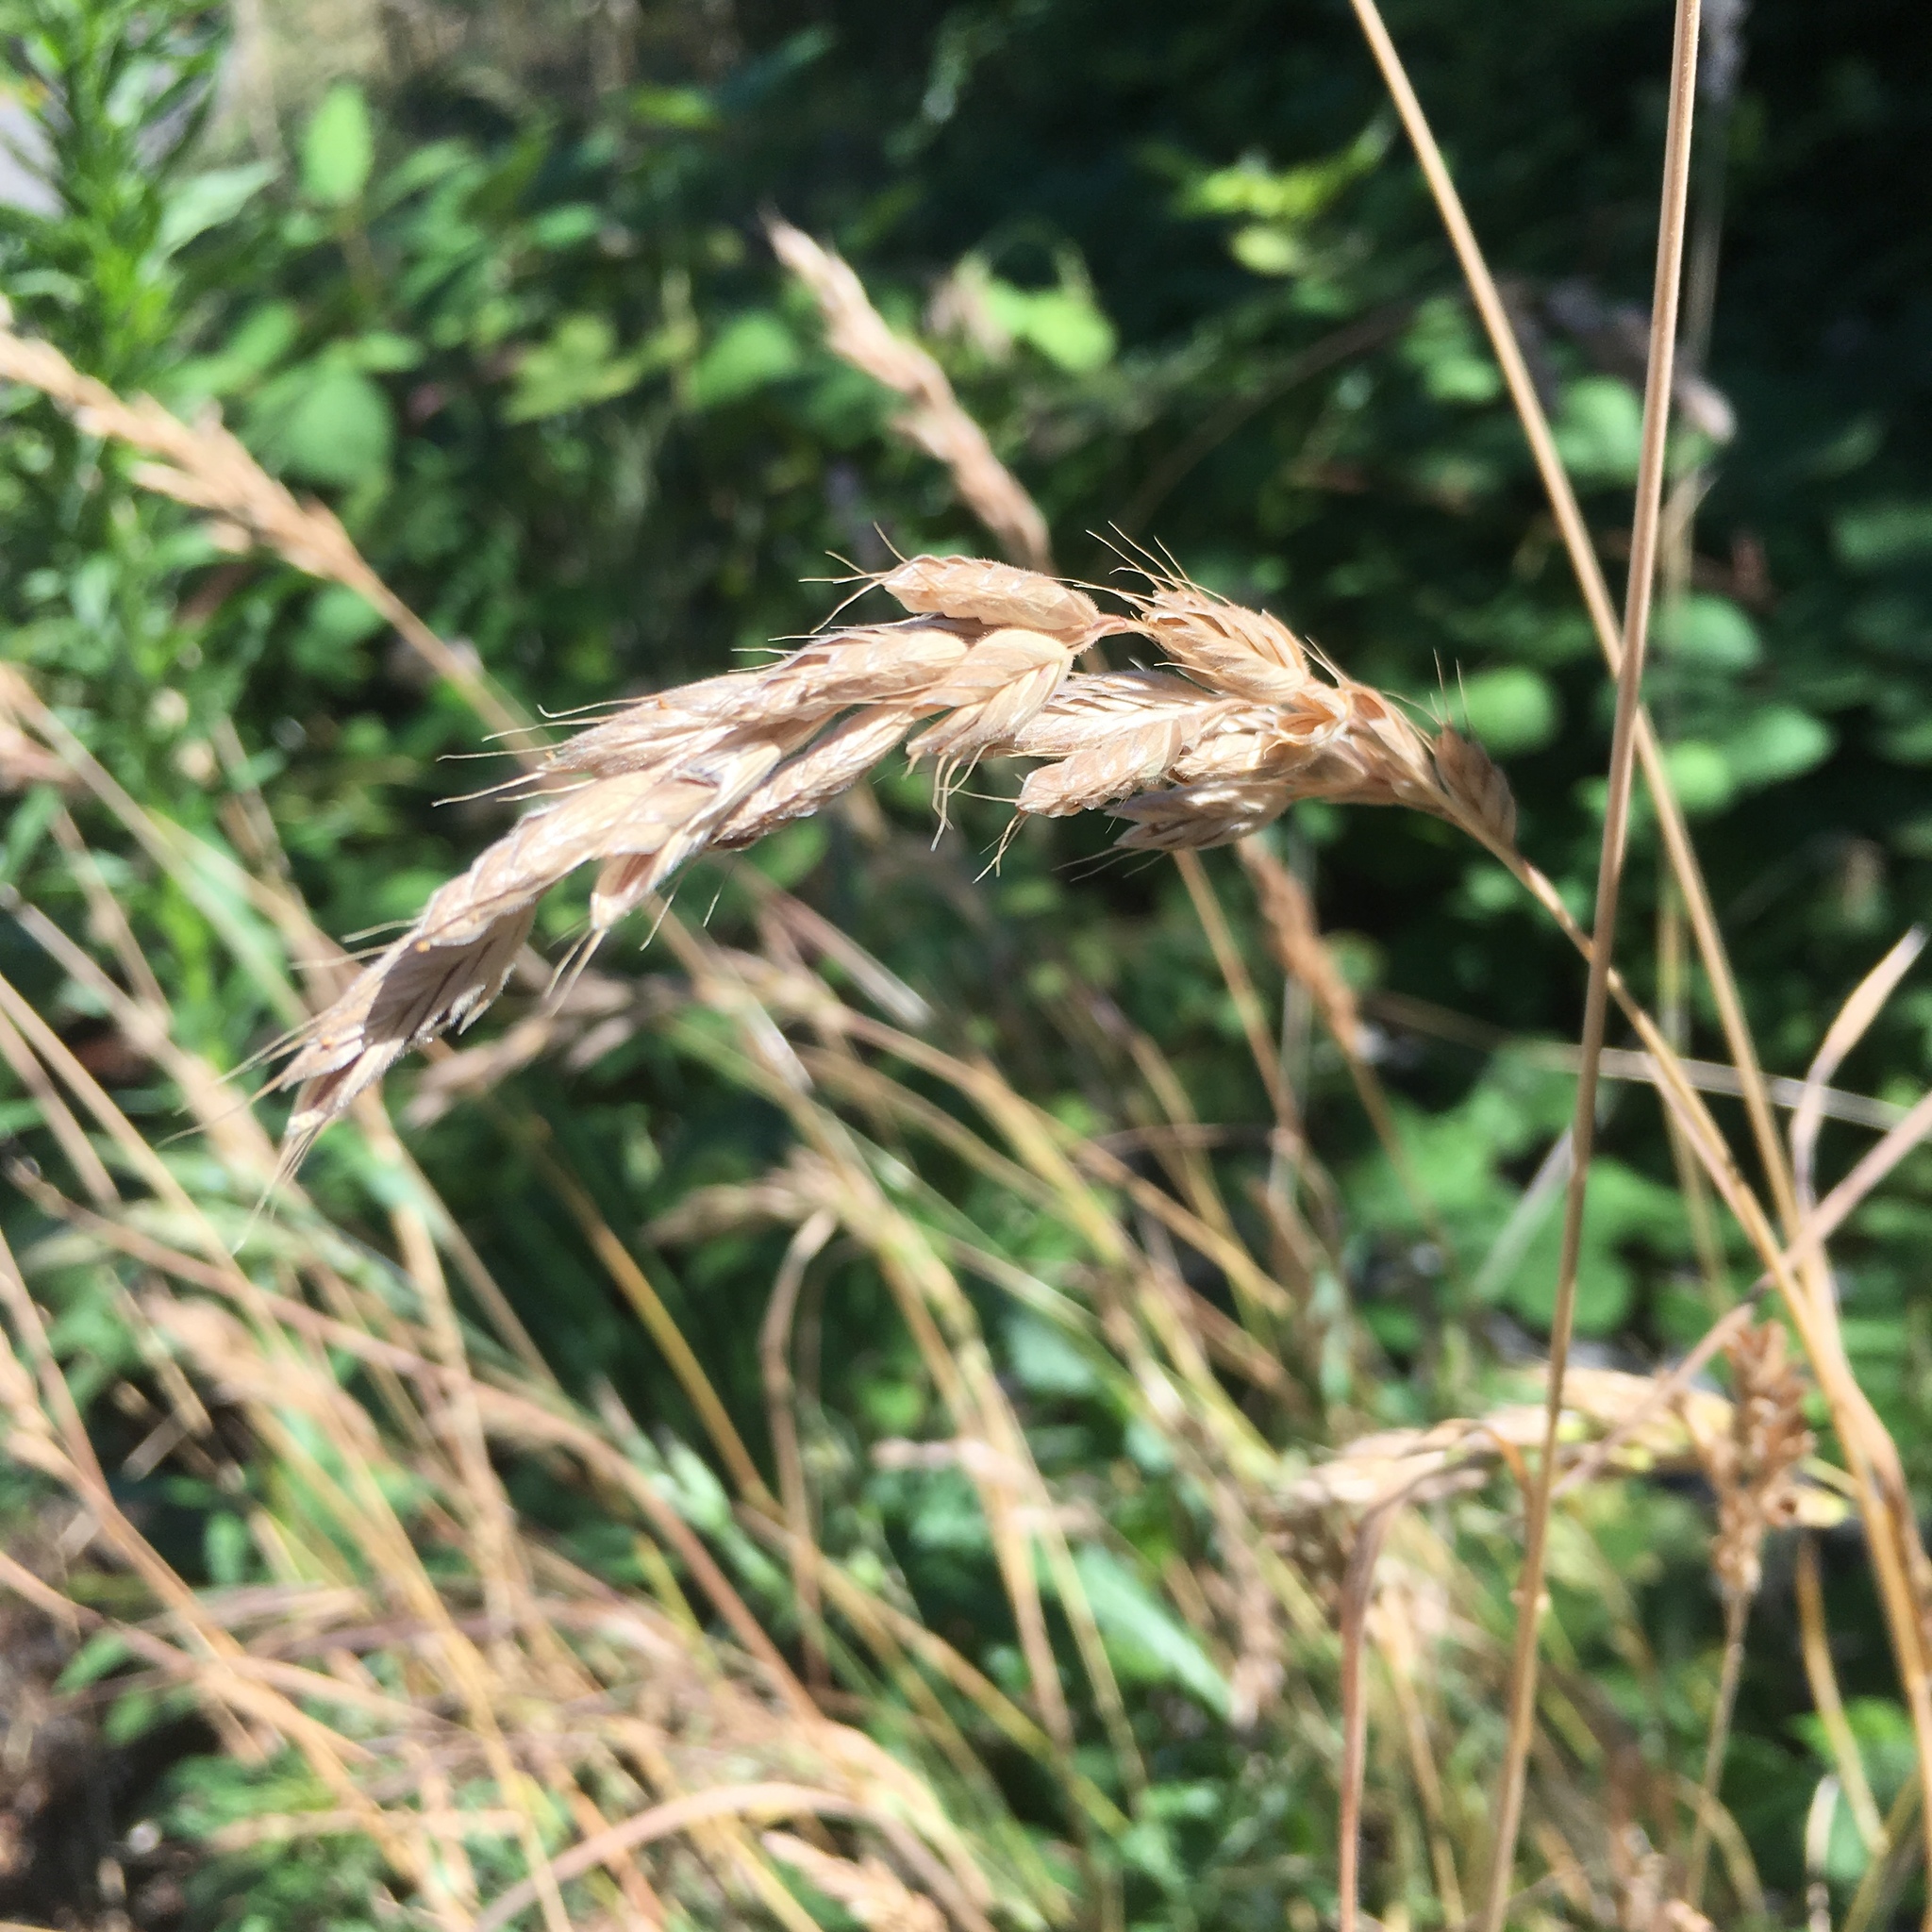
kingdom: Plantae
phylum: Tracheophyta
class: Liliopsida
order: Poales
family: Poaceae
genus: Bromus
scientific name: Bromus hordeaceus
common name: Soft brome
